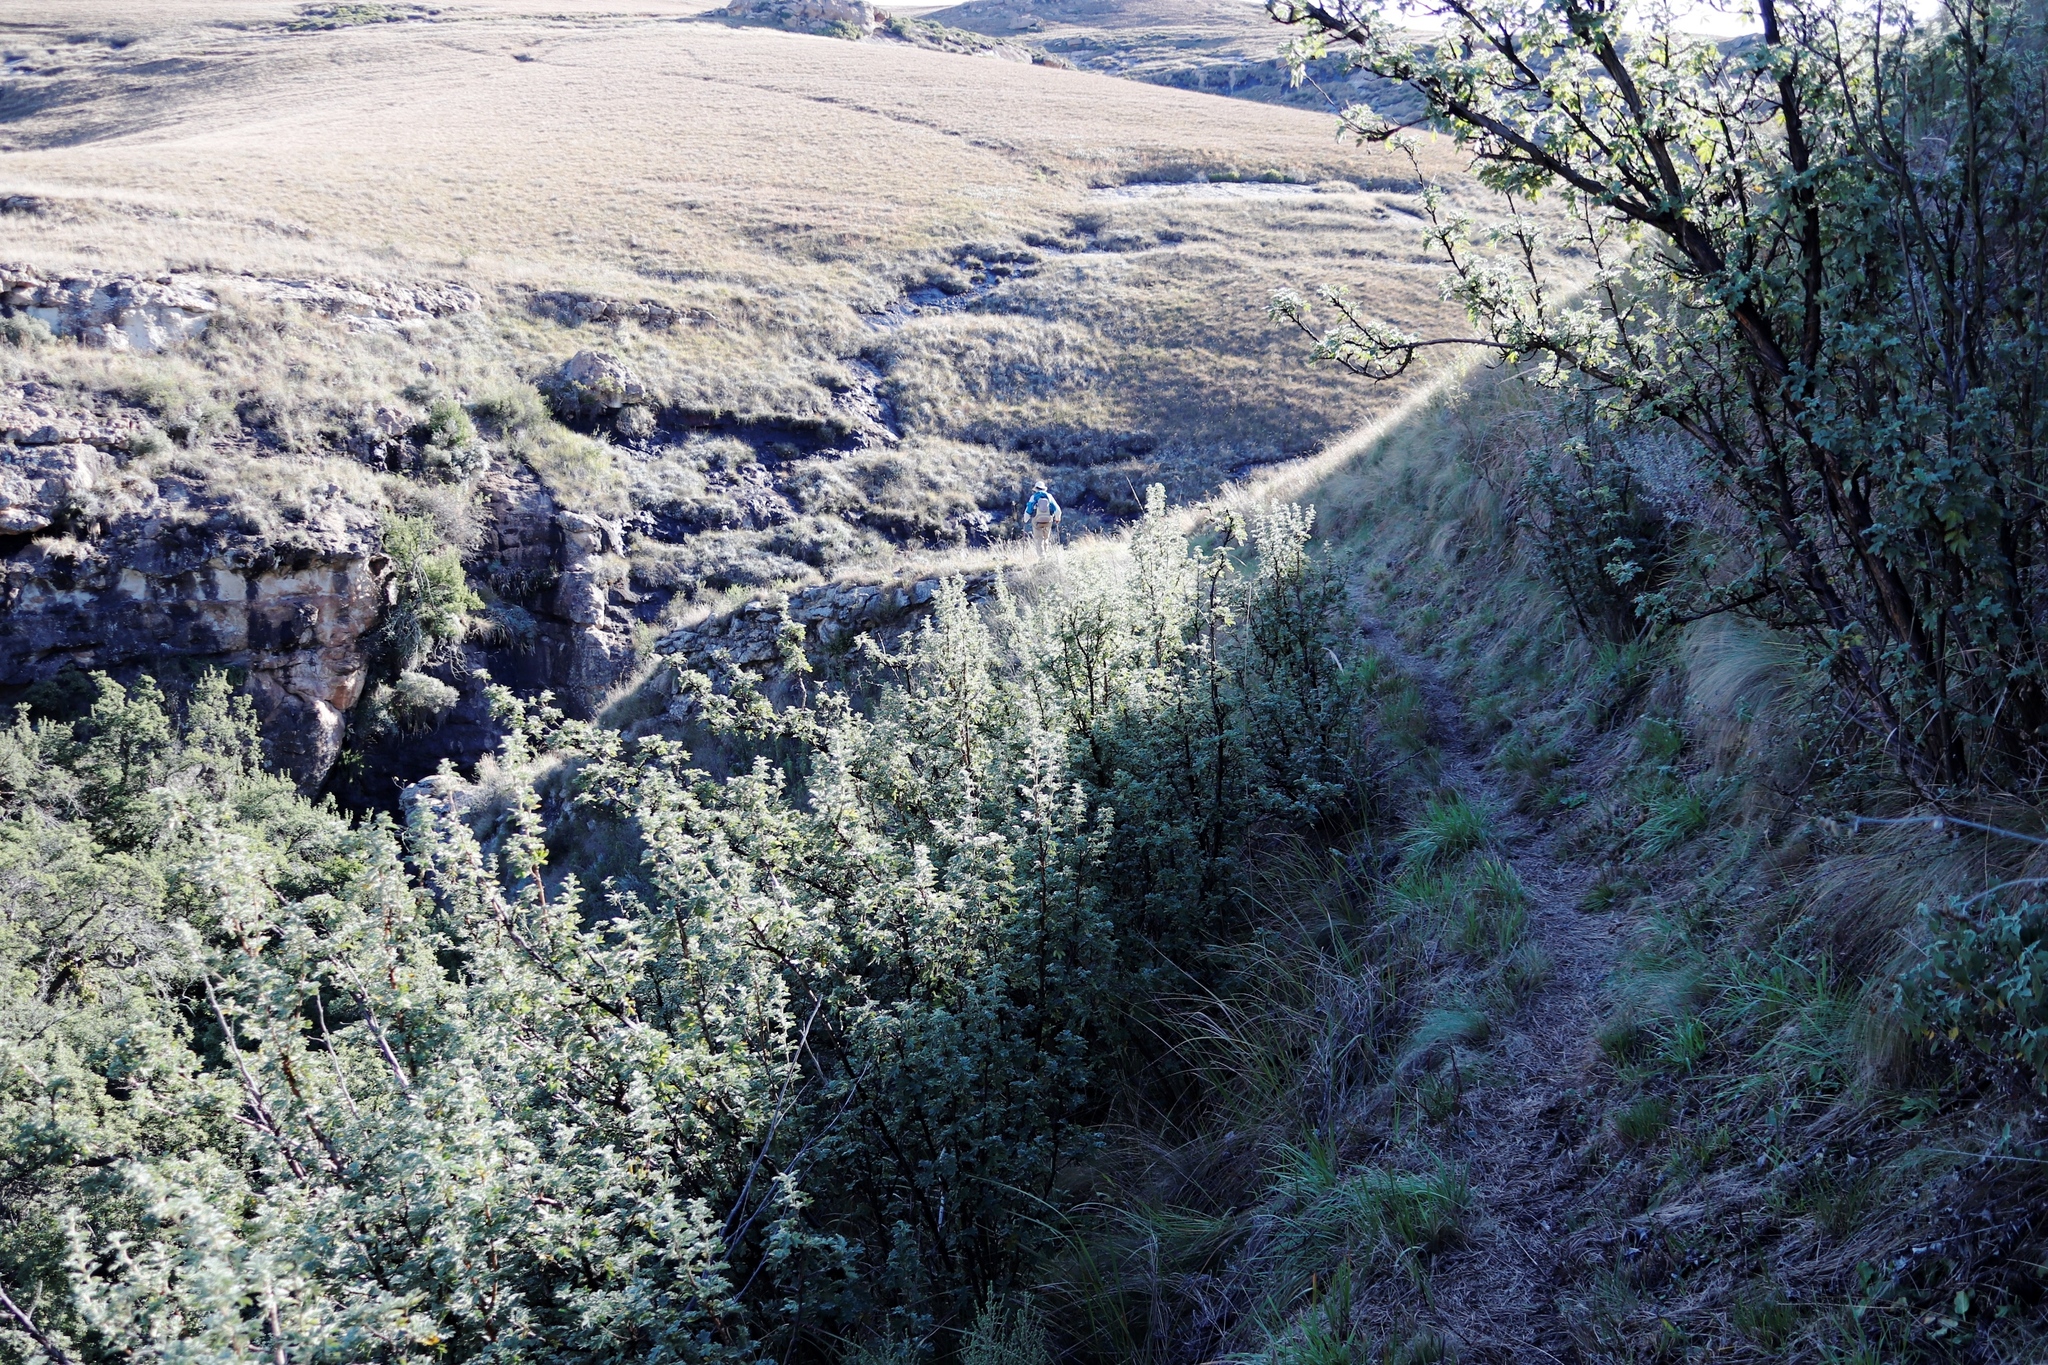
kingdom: Plantae
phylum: Tracheophyta
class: Magnoliopsida
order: Rosales
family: Rosaceae
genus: Leucosidea
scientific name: Leucosidea sericea
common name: Oldwood
